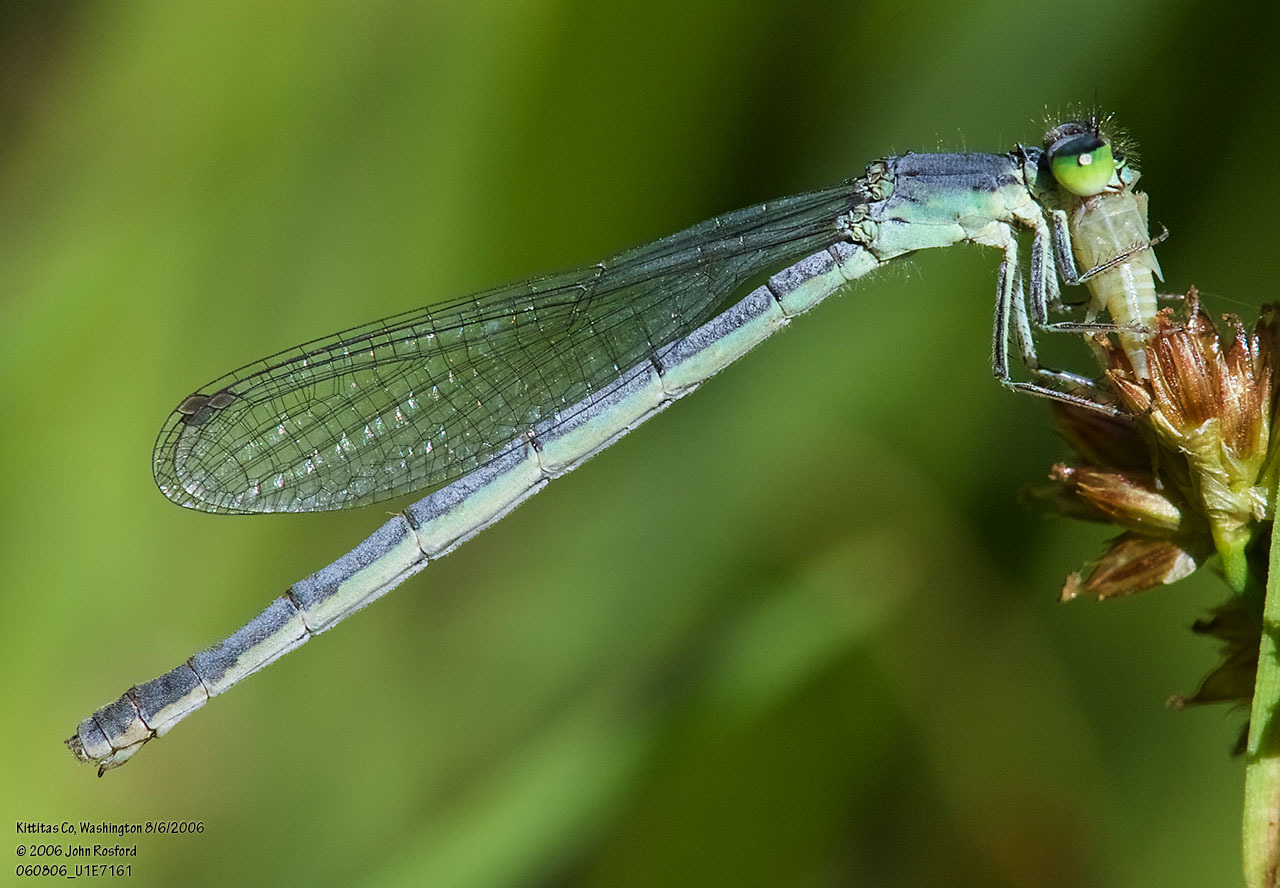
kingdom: Animalia
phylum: Arthropoda
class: Insecta
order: Odonata
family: Coenagrionidae
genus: Ischnura
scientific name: Ischnura perparva
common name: Western forktail
